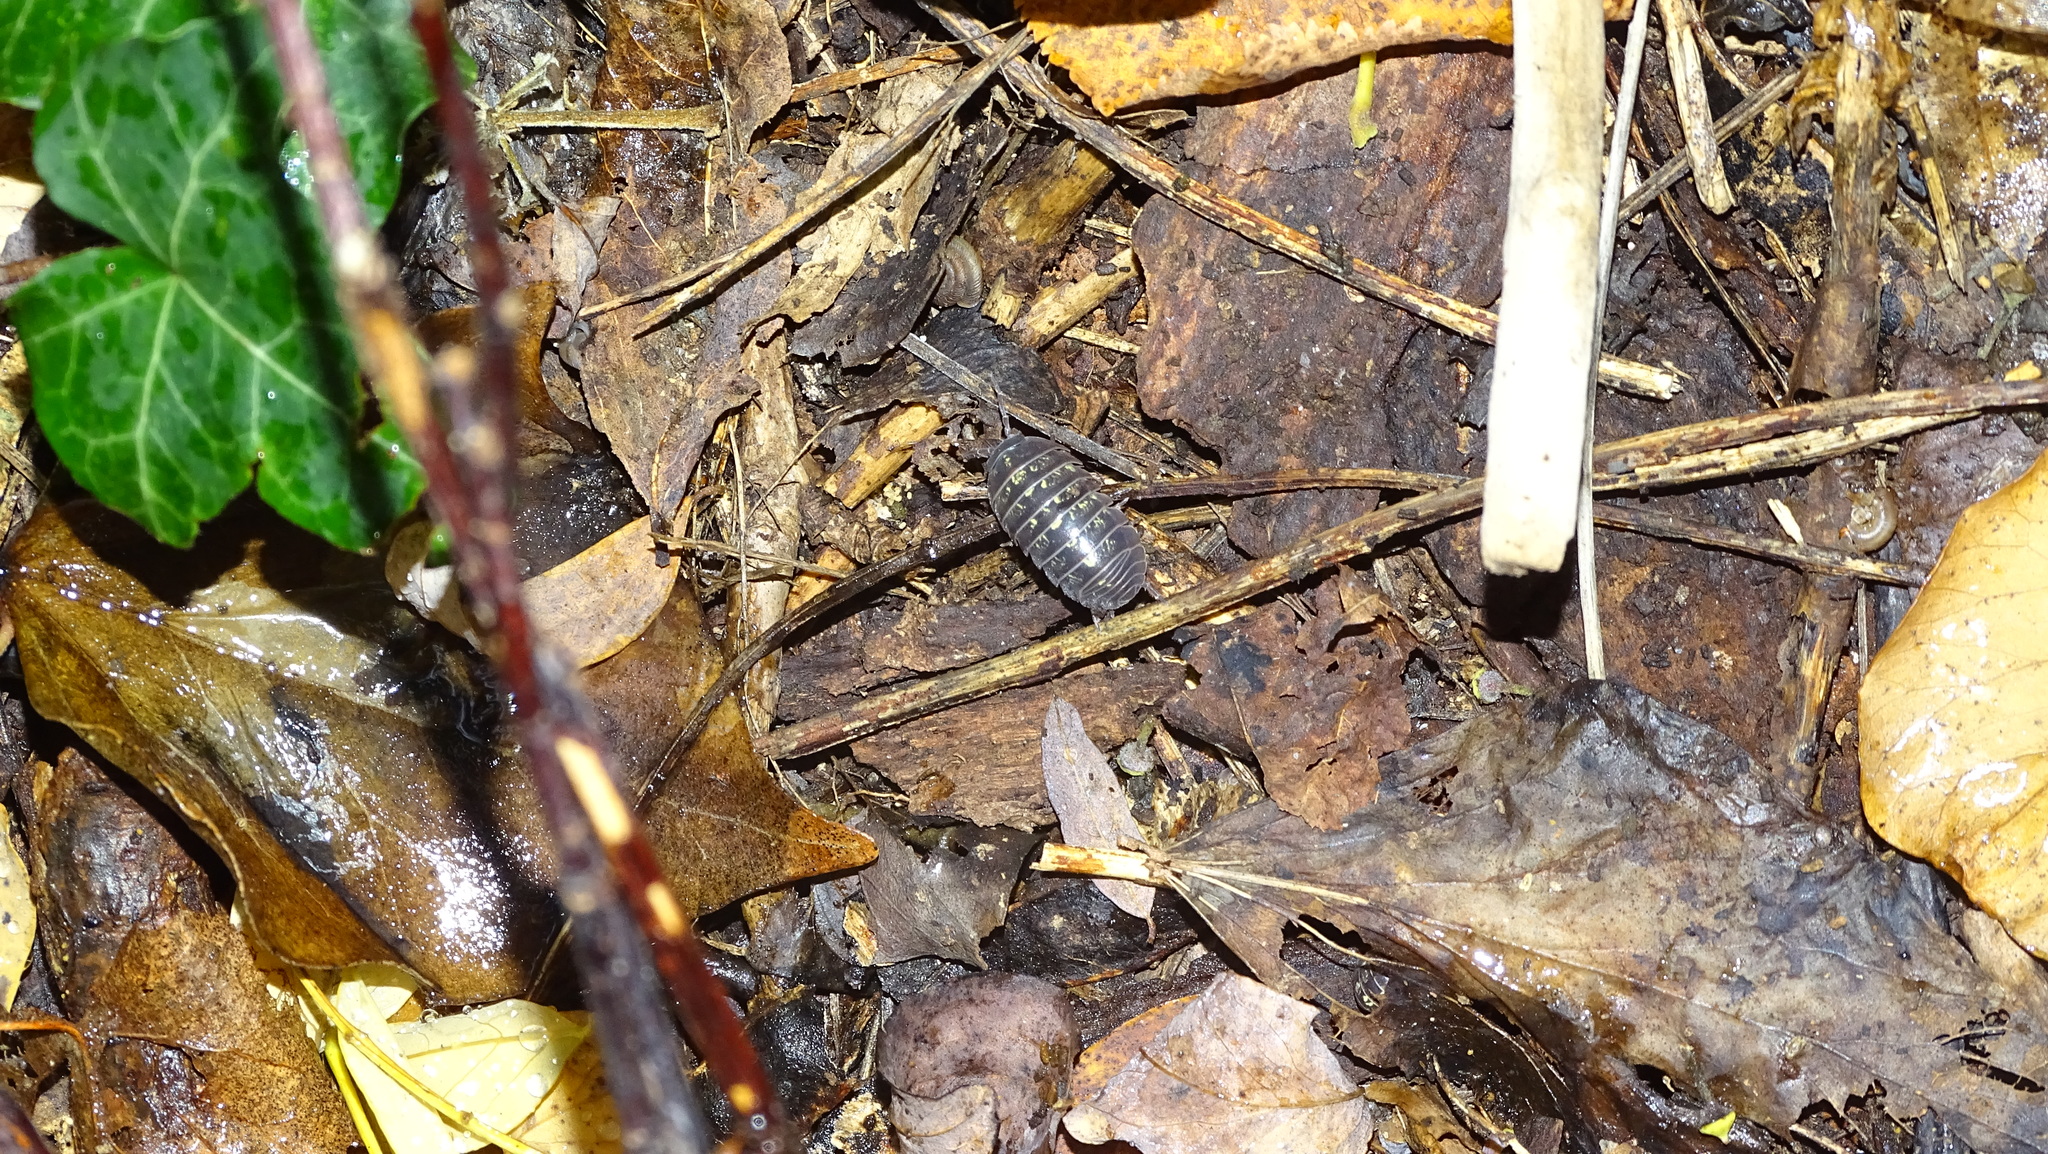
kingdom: Animalia
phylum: Arthropoda
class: Malacostraca
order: Isopoda
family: Armadillidiidae
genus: Armadillidium
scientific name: Armadillidium vulgare
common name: Common pill woodlouse
